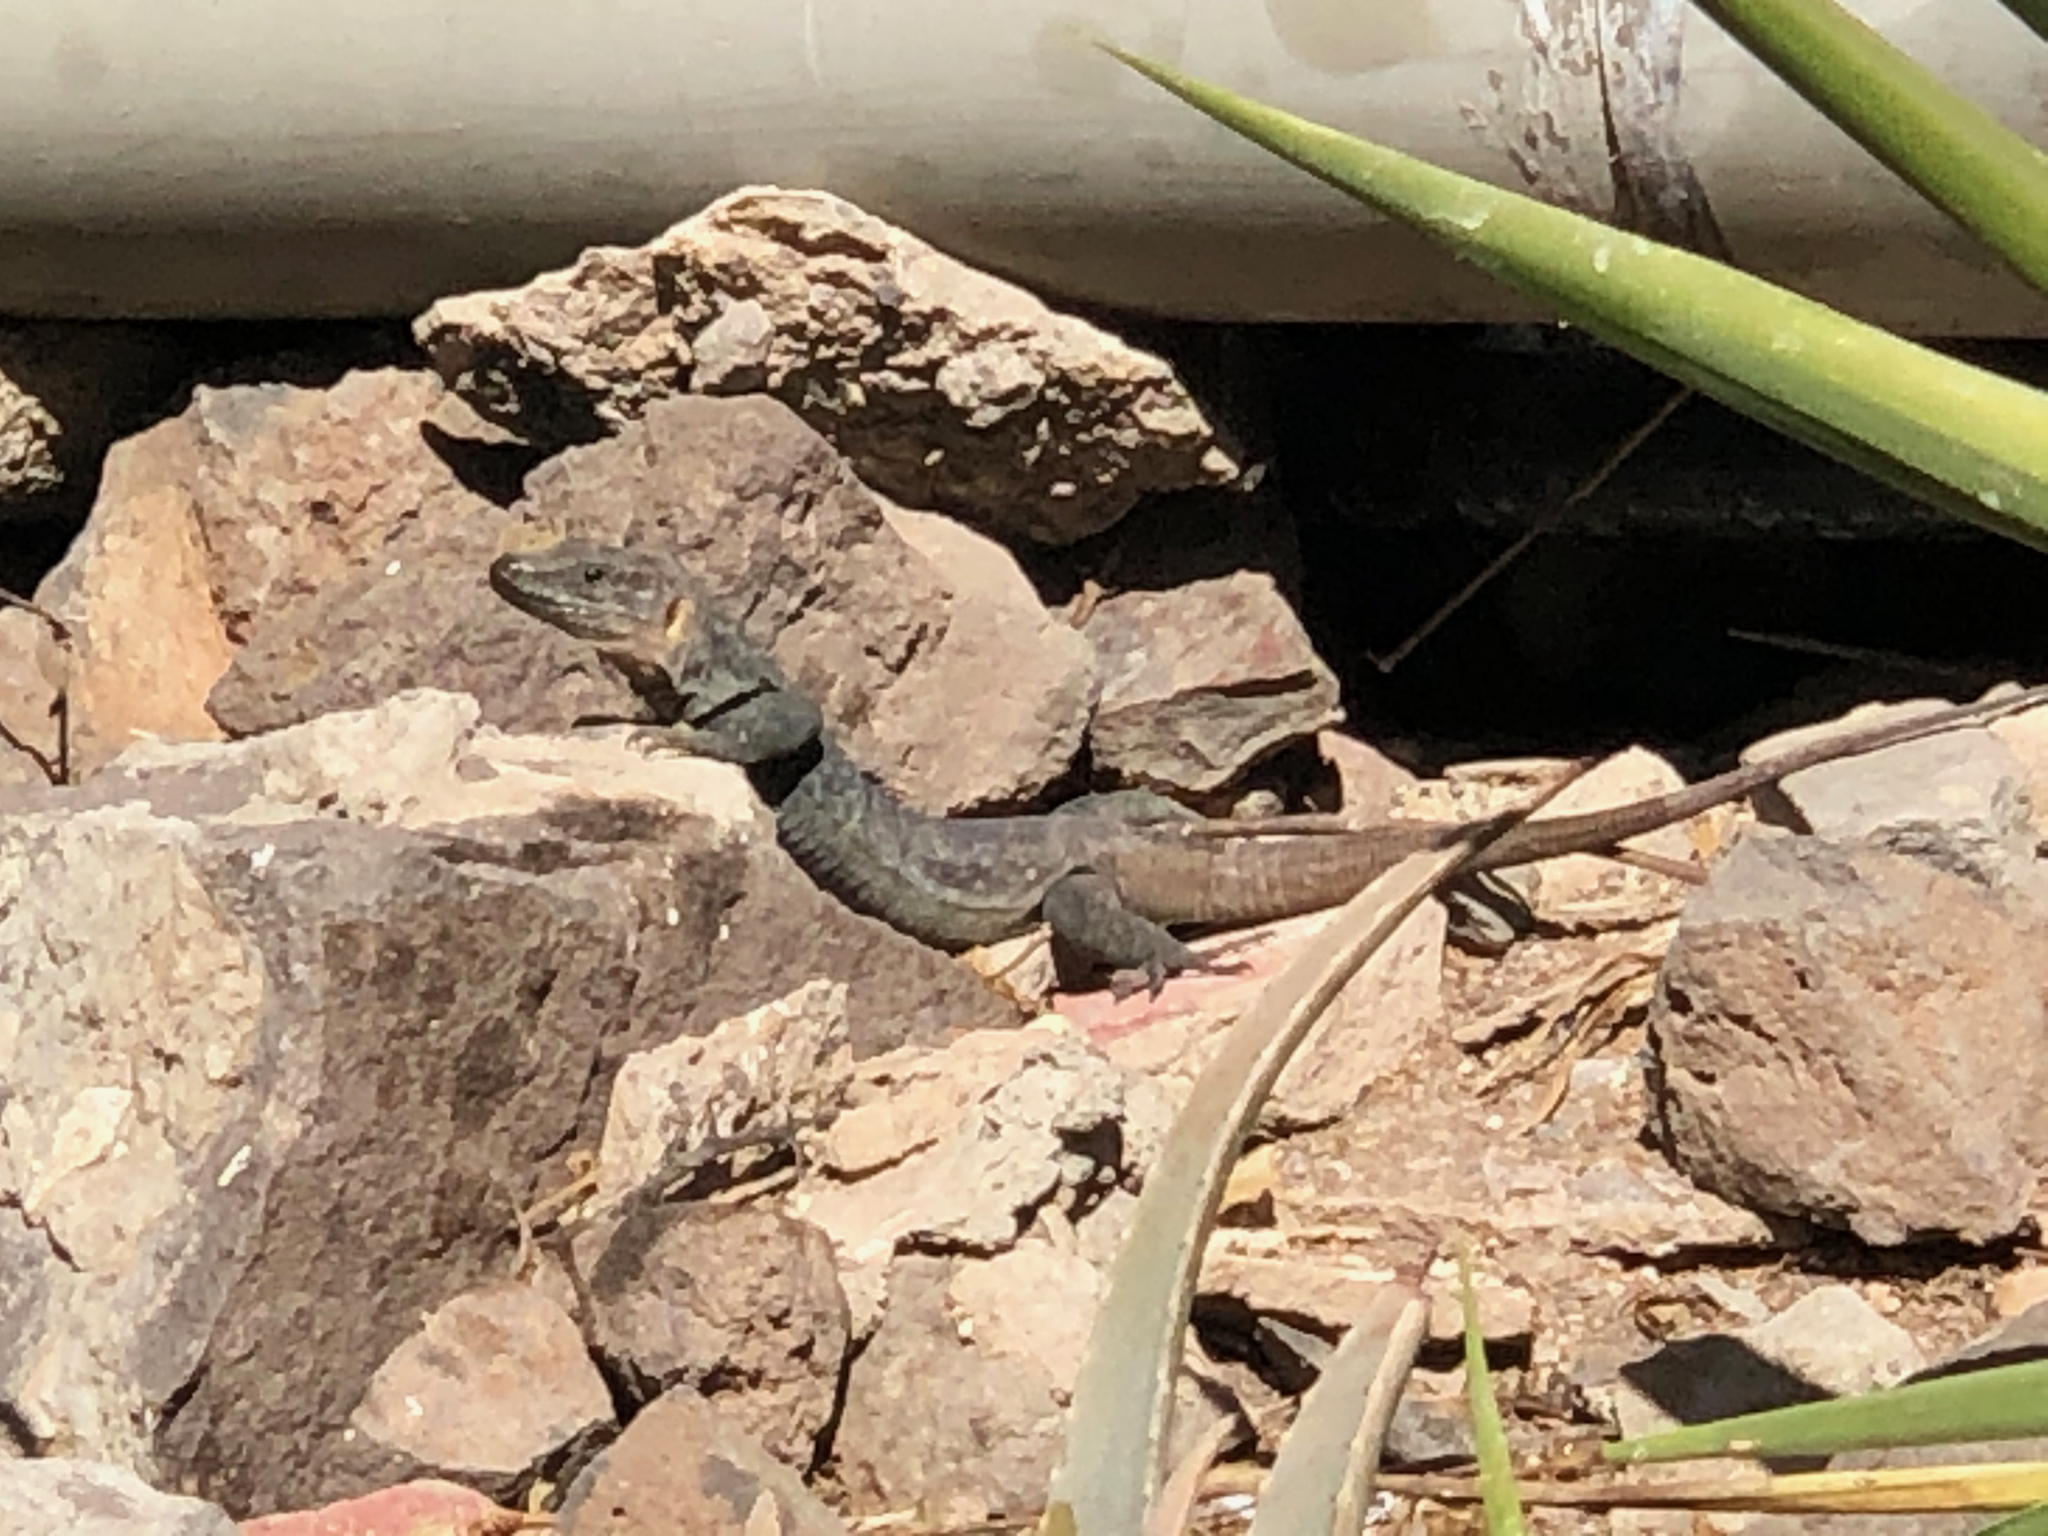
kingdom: Animalia
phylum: Chordata
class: Squamata
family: Lacertidae
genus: Gallotia
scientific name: Gallotia stehlini
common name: Gran canaria giant lizard
